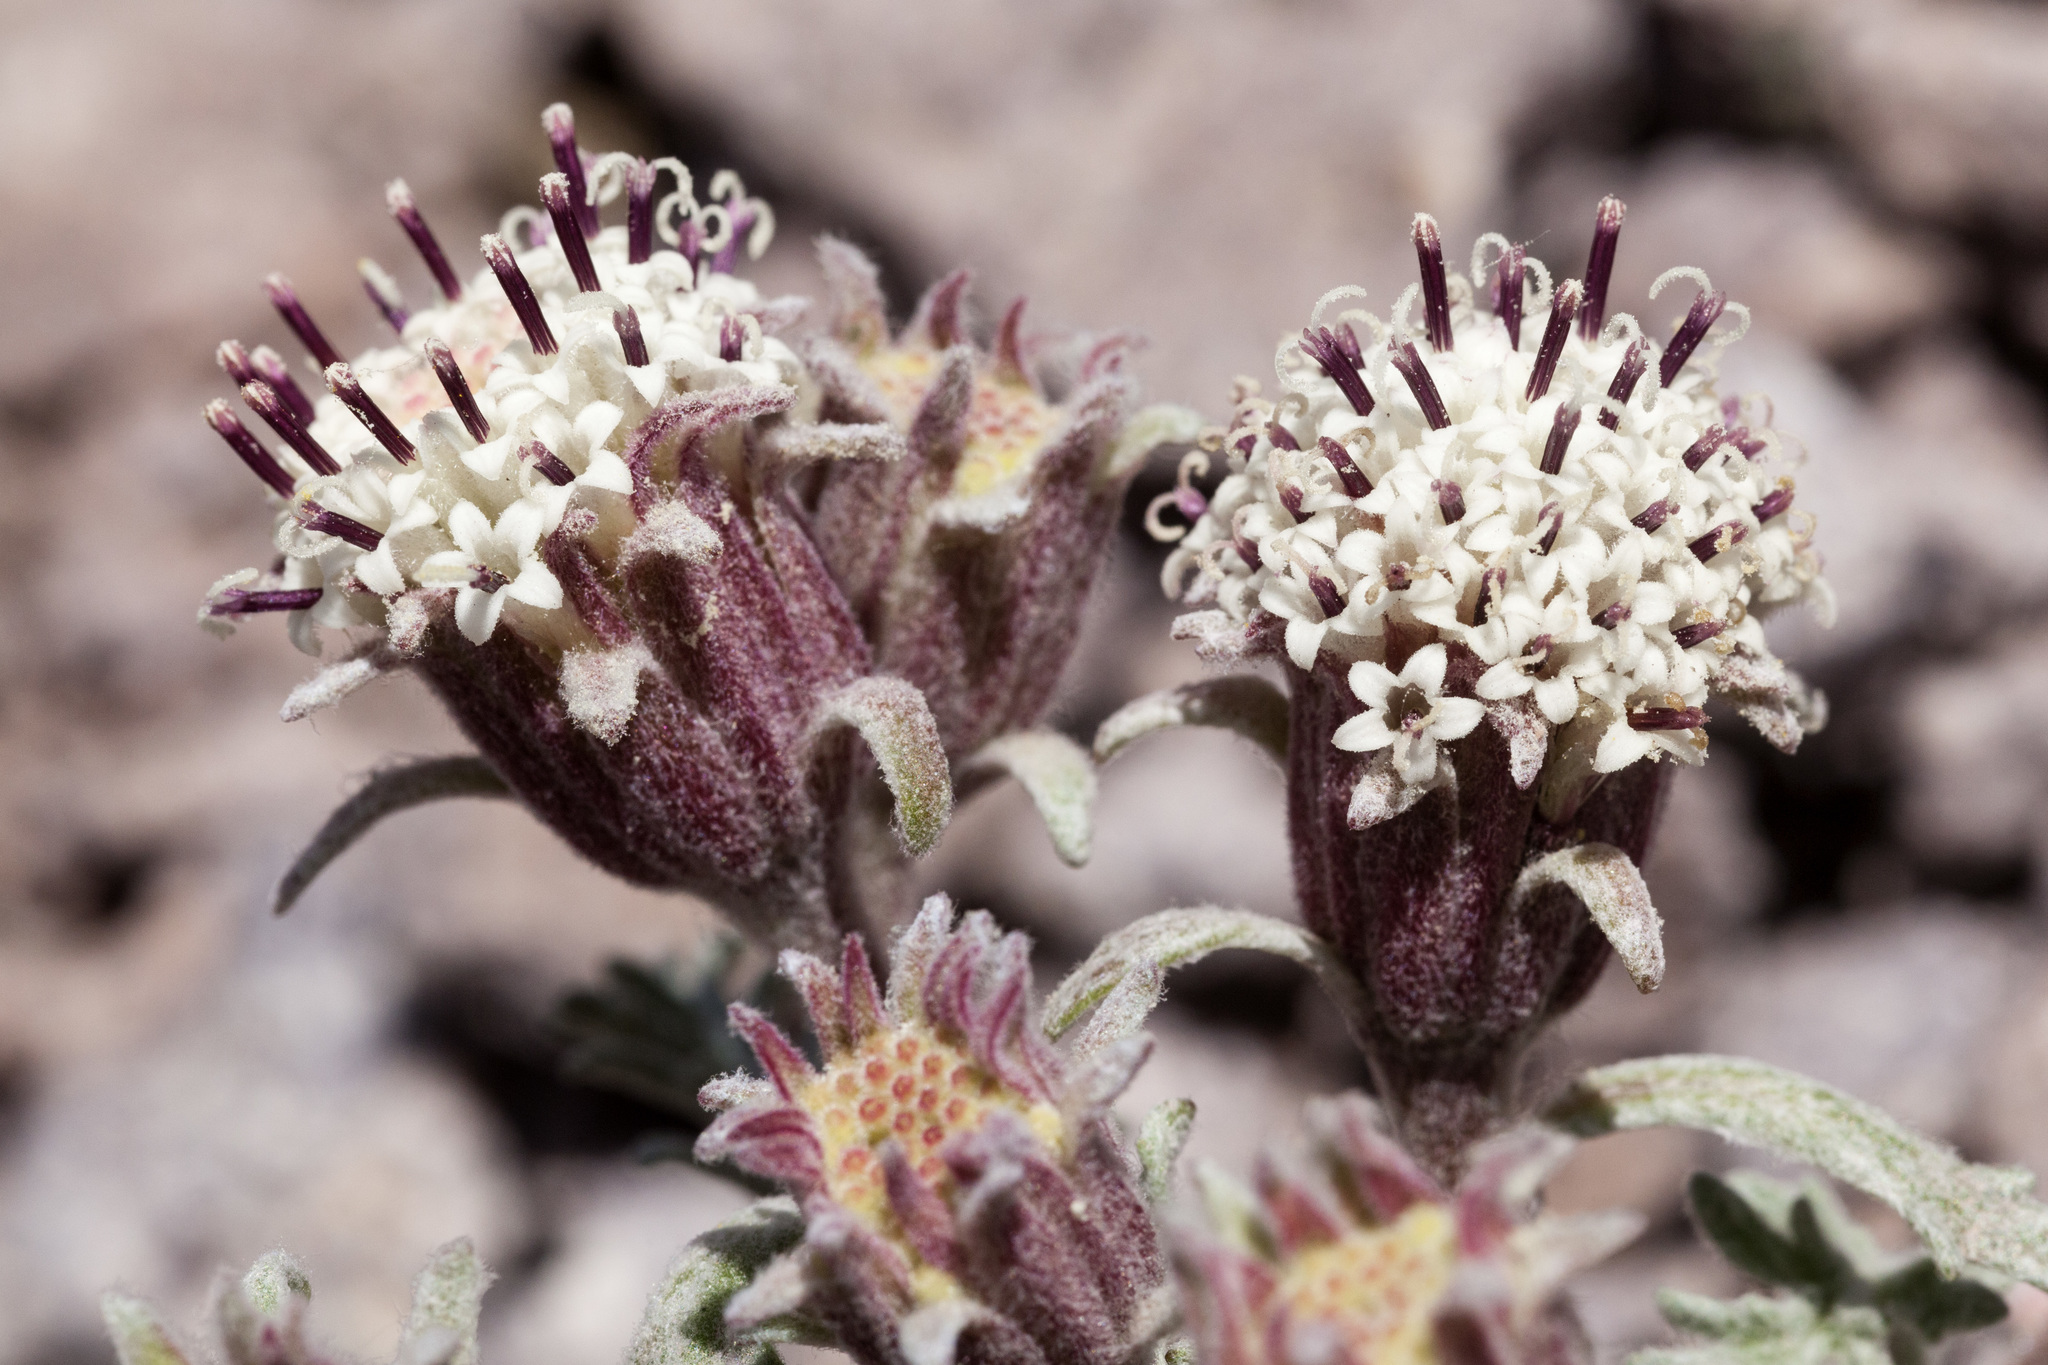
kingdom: Plantae
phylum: Tracheophyta
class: Magnoliopsida
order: Asterales
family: Asteraceae
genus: Chaenactis
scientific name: Chaenactis douglasii
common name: Hoary pincushion
